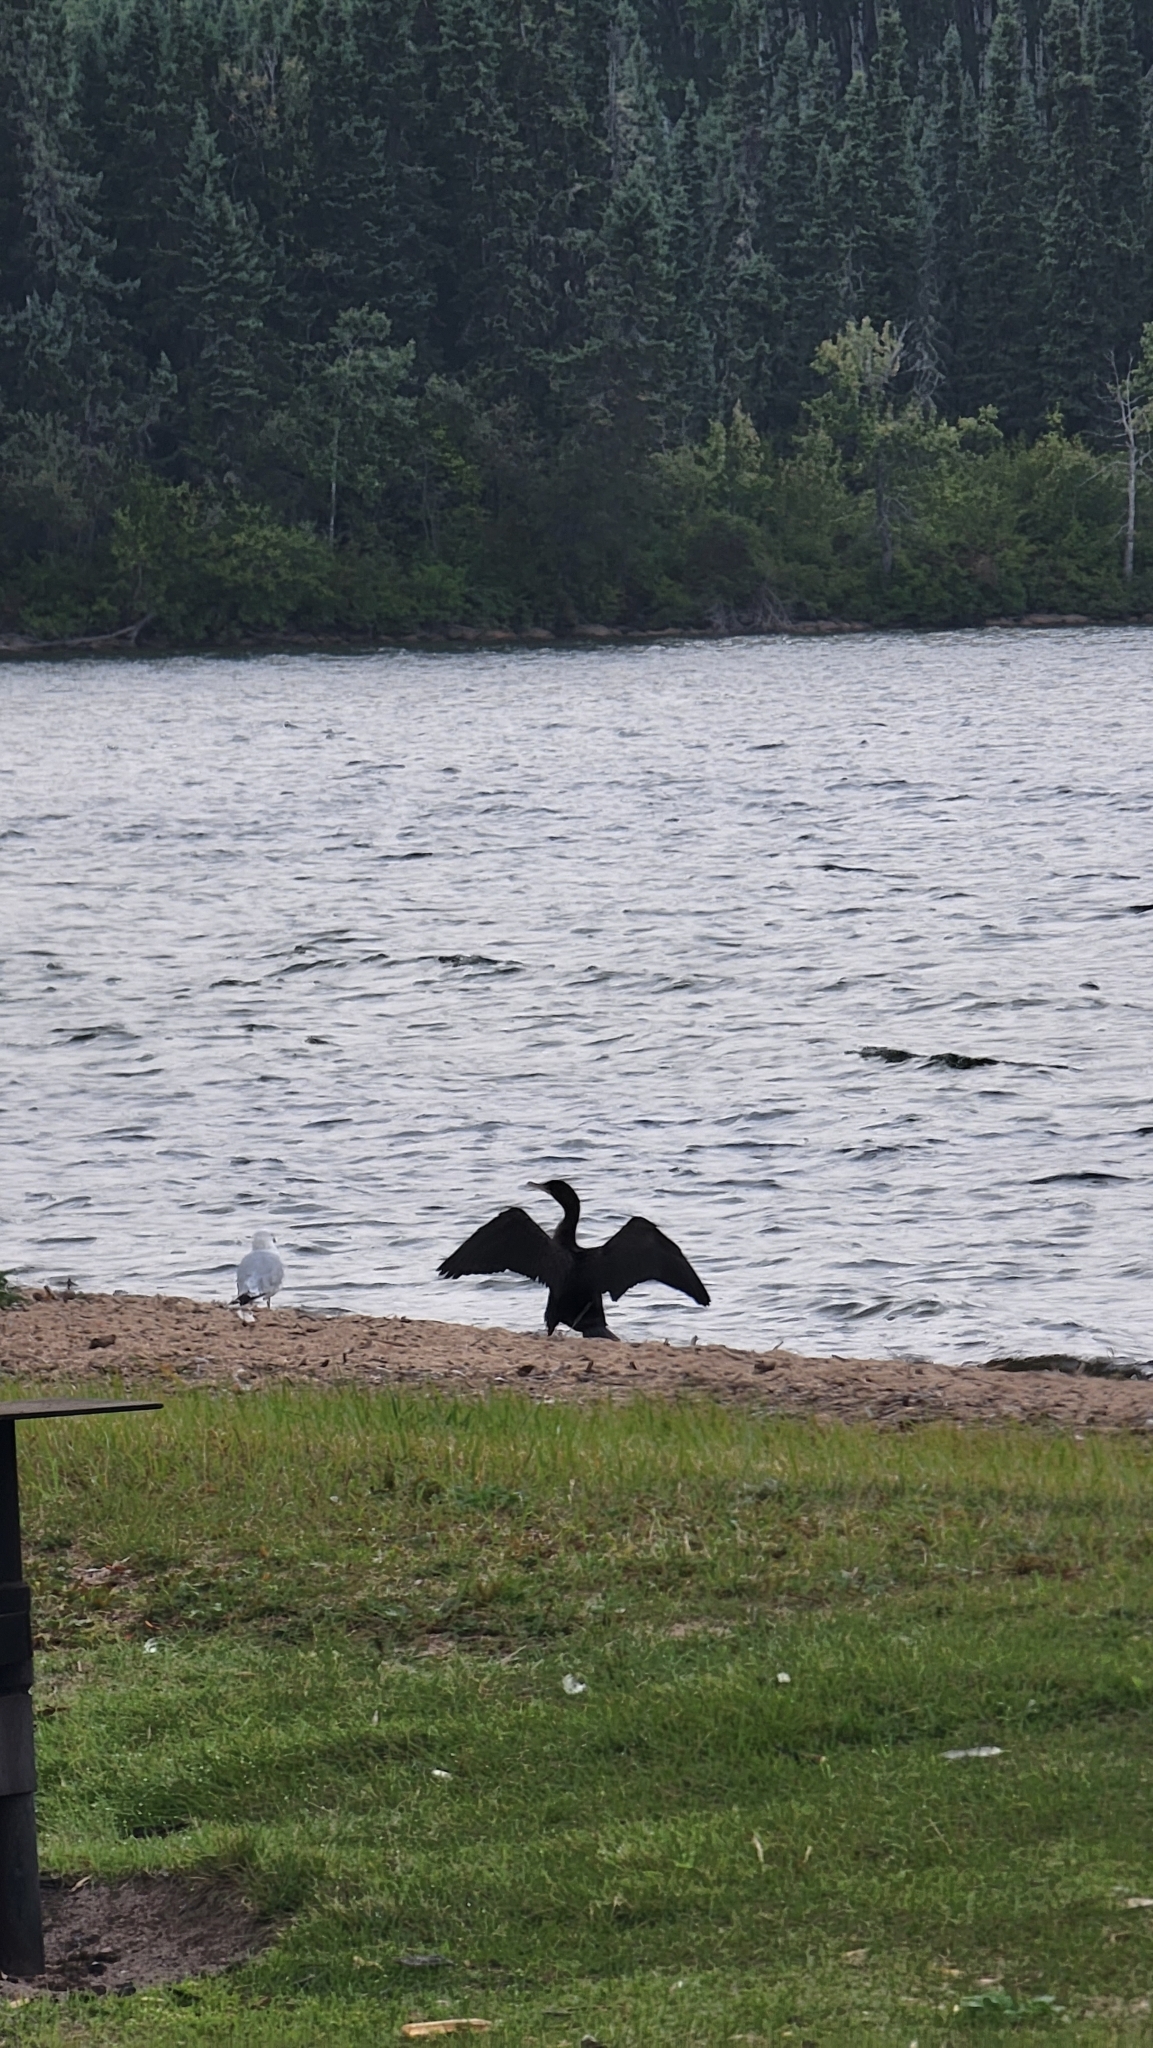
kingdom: Animalia
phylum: Chordata
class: Aves
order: Suliformes
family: Phalacrocoracidae
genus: Phalacrocorax
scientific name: Phalacrocorax auritus
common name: Double-crested cormorant
